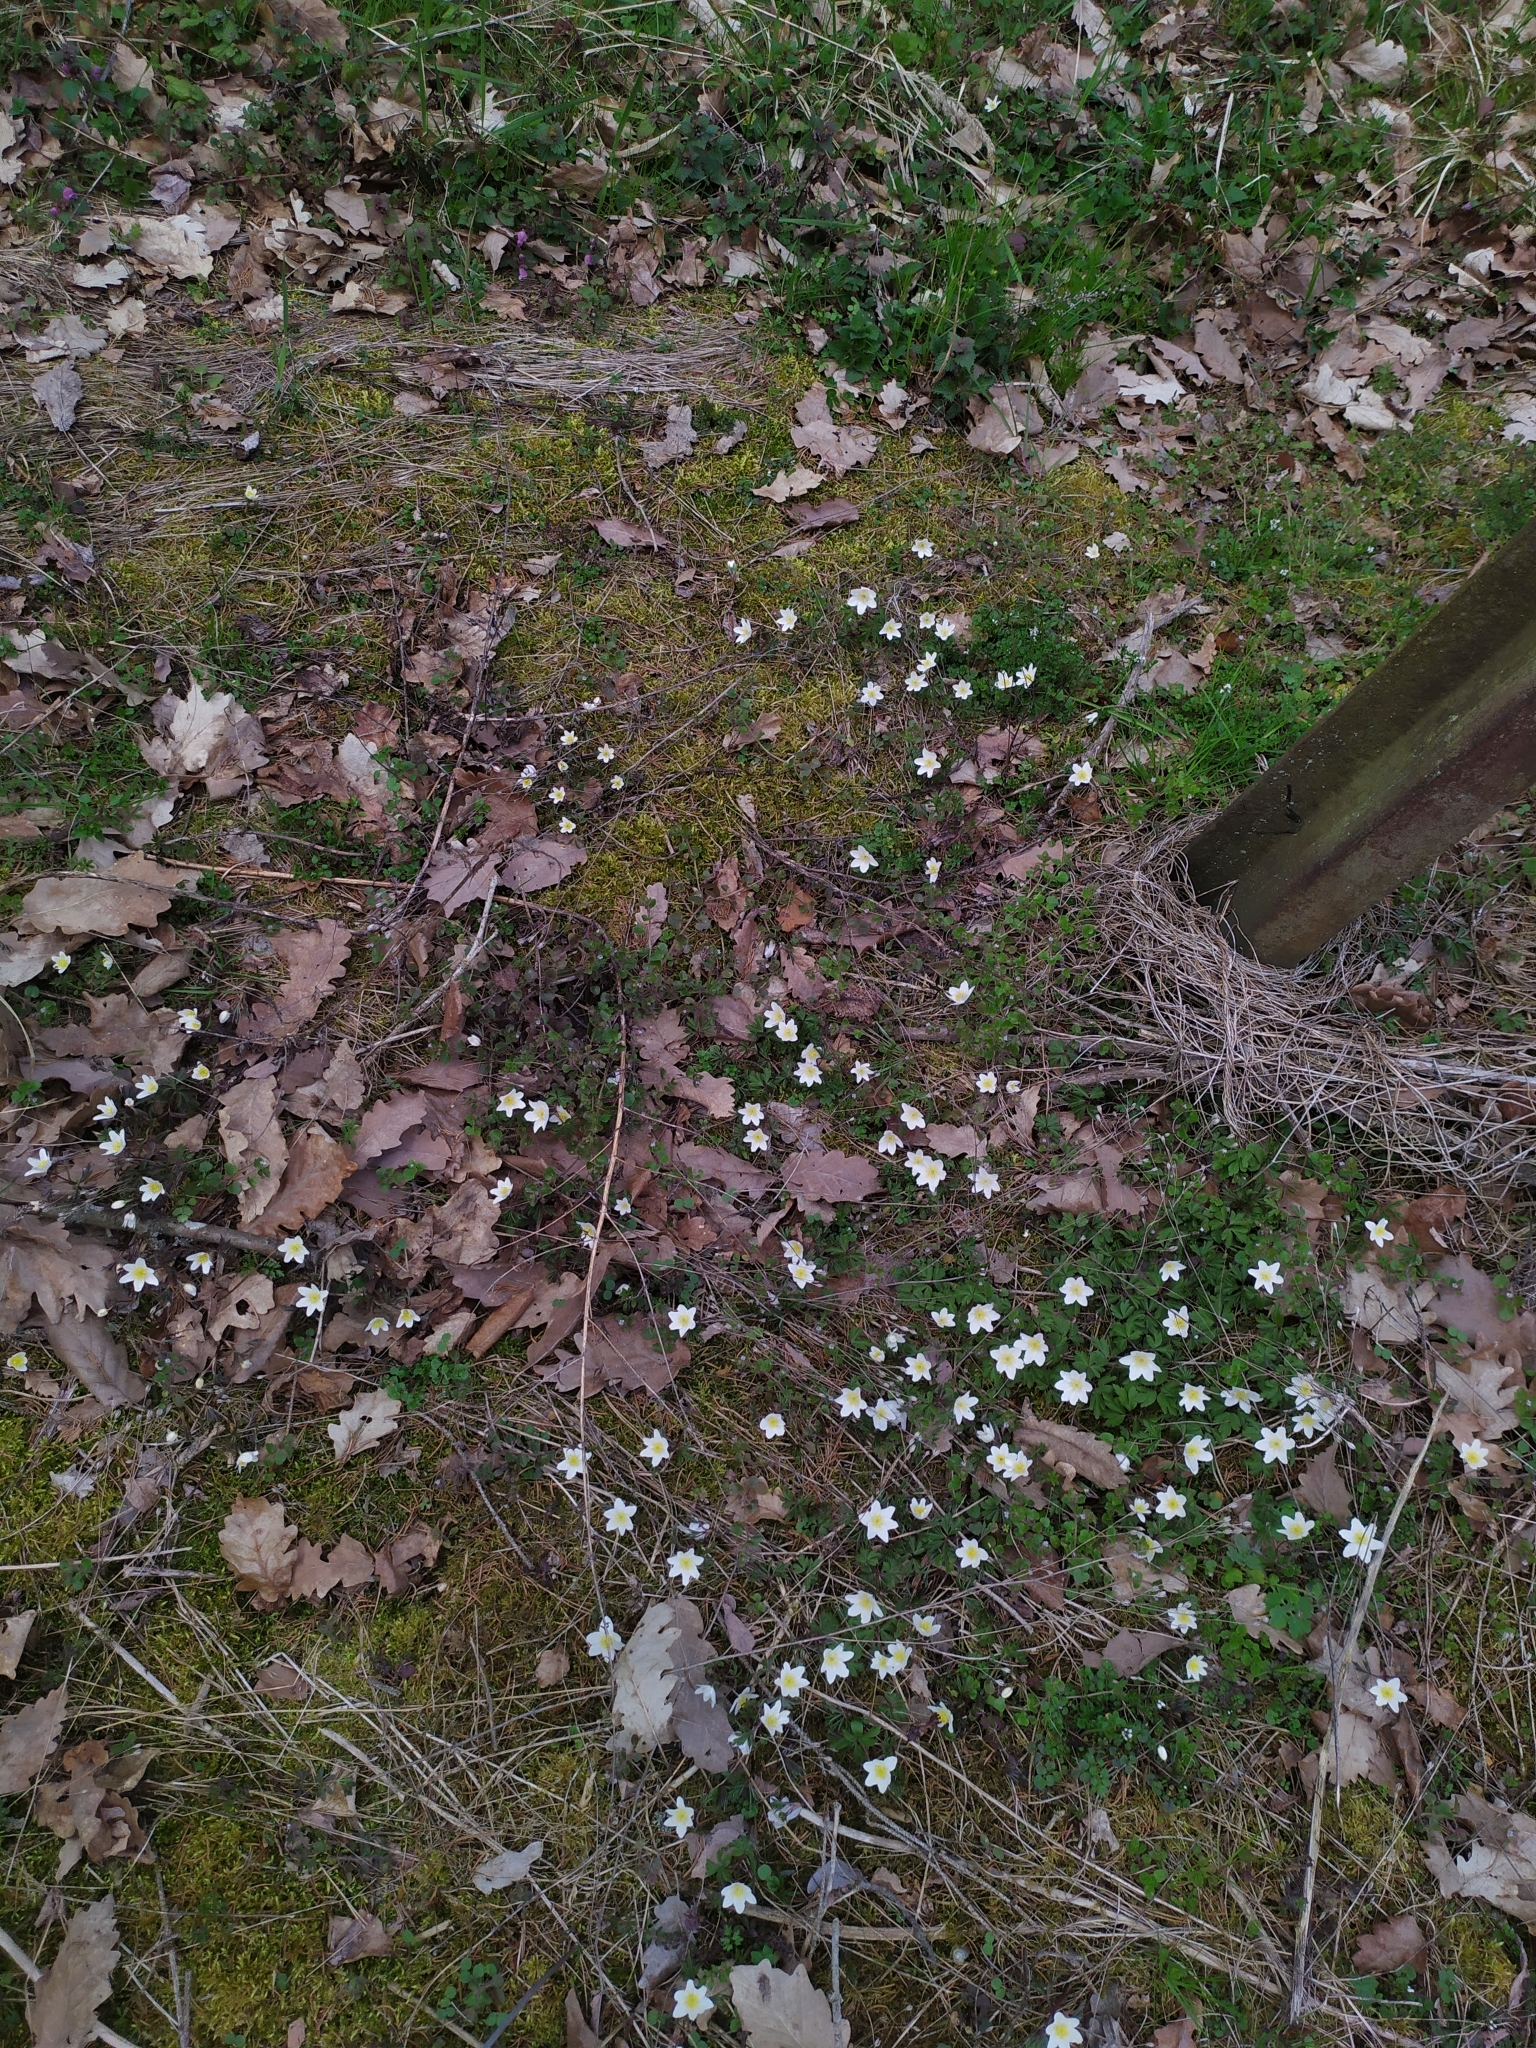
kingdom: Plantae
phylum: Tracheophyta
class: Magnoliopsida
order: Ranunculales
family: Ranunculaceae
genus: Anemone
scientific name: Anemone nemorosa
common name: Wood anemone
